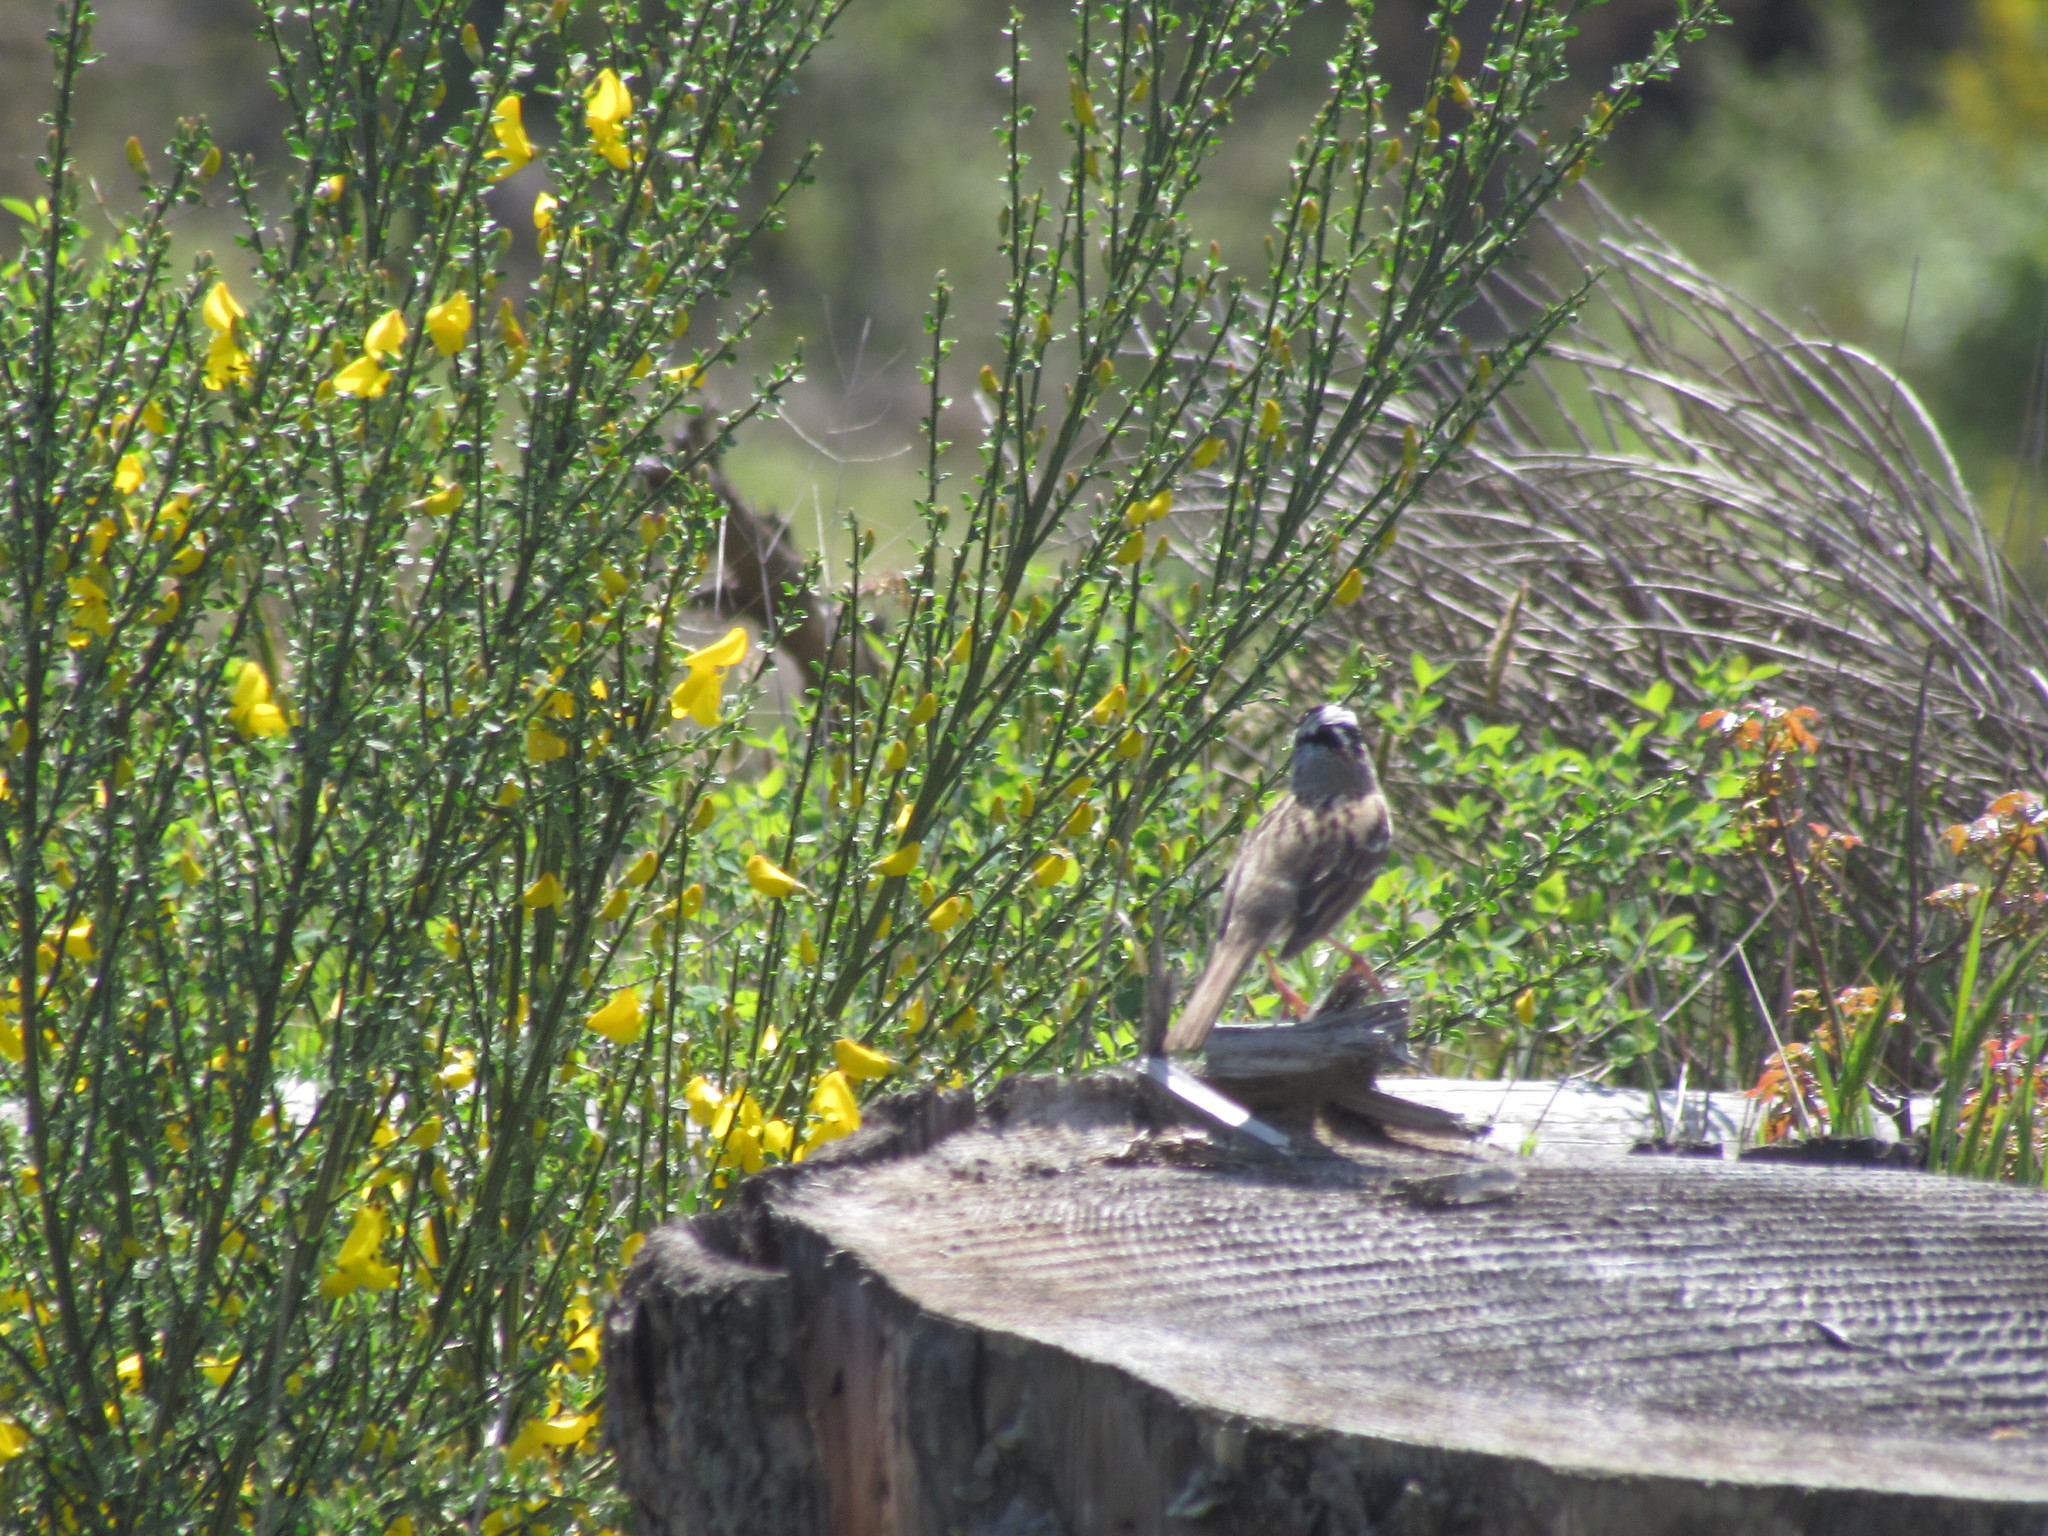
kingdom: Animalia
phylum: Chordata
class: Aves
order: Passeriformes
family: Passerellidae
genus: Zonotrichia
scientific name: Zonotrichia leucophrys
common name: White-crowned sparrow
